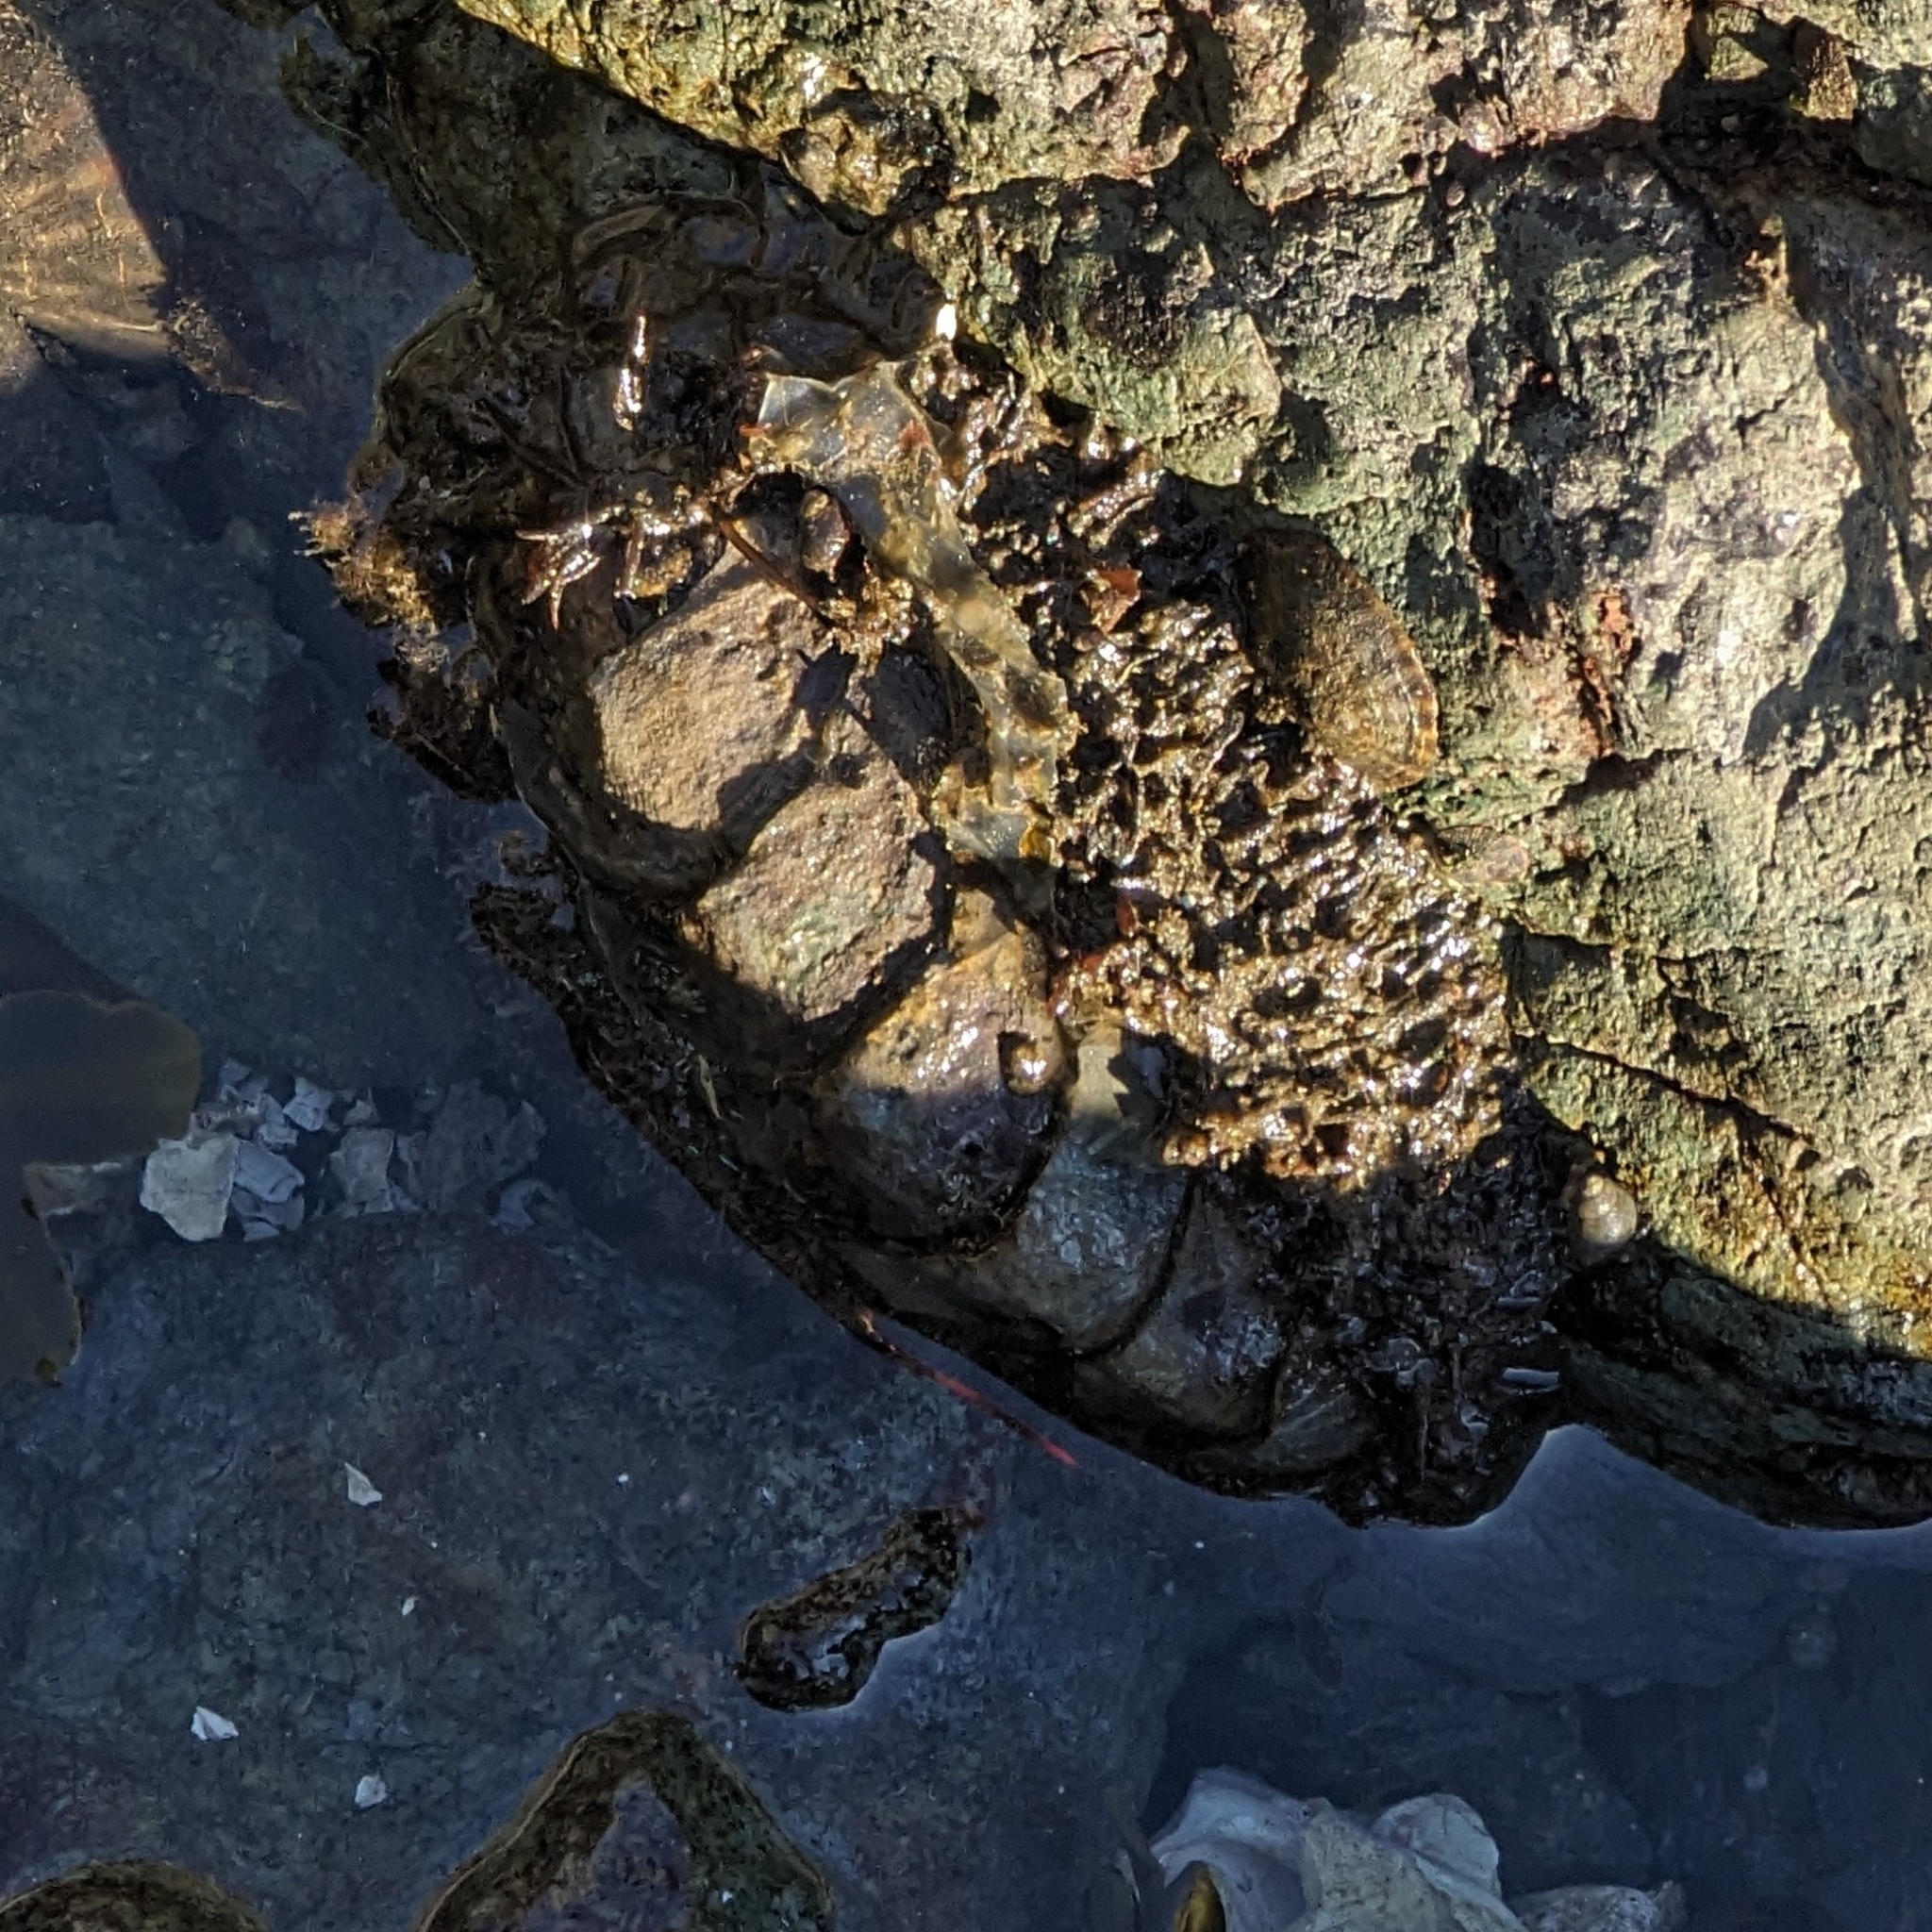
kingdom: Animalia
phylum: Mollusca
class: Polyplacophora
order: Chitonida
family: Mopaliidae
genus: Mopalia
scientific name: Mopalia muscosa
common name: Mossy chiton
